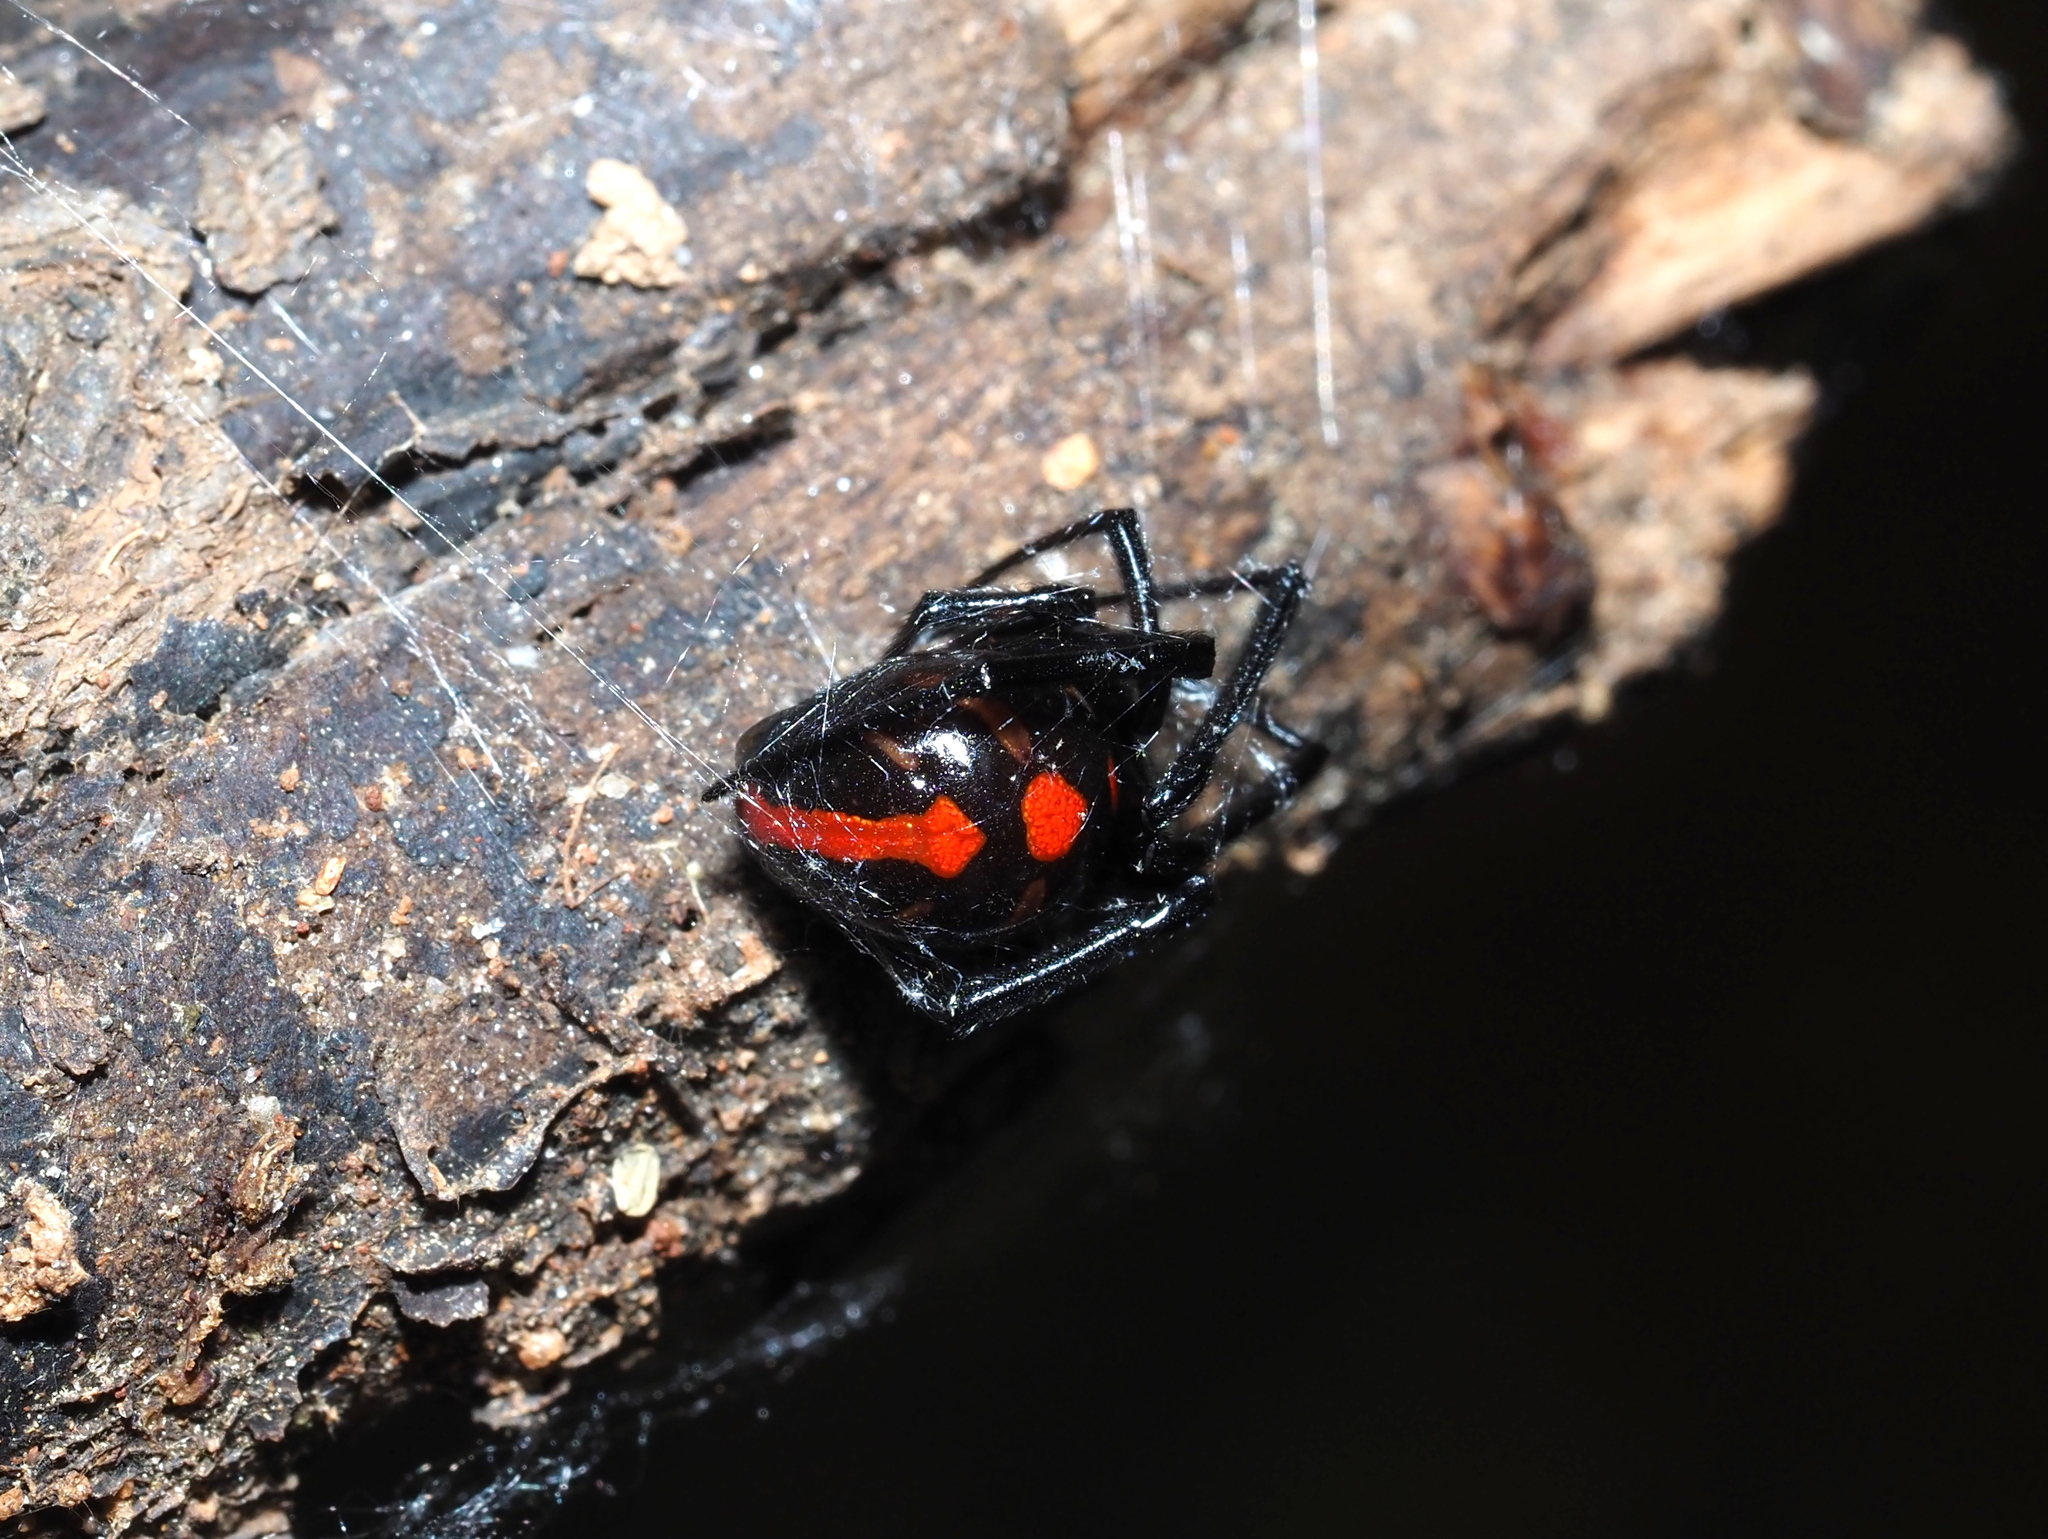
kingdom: Animalia
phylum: Arthropoda
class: Arachnida
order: Araneae
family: Theridiidae
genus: Latrodectus
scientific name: Latrodectus variolus
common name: Northern black widow
